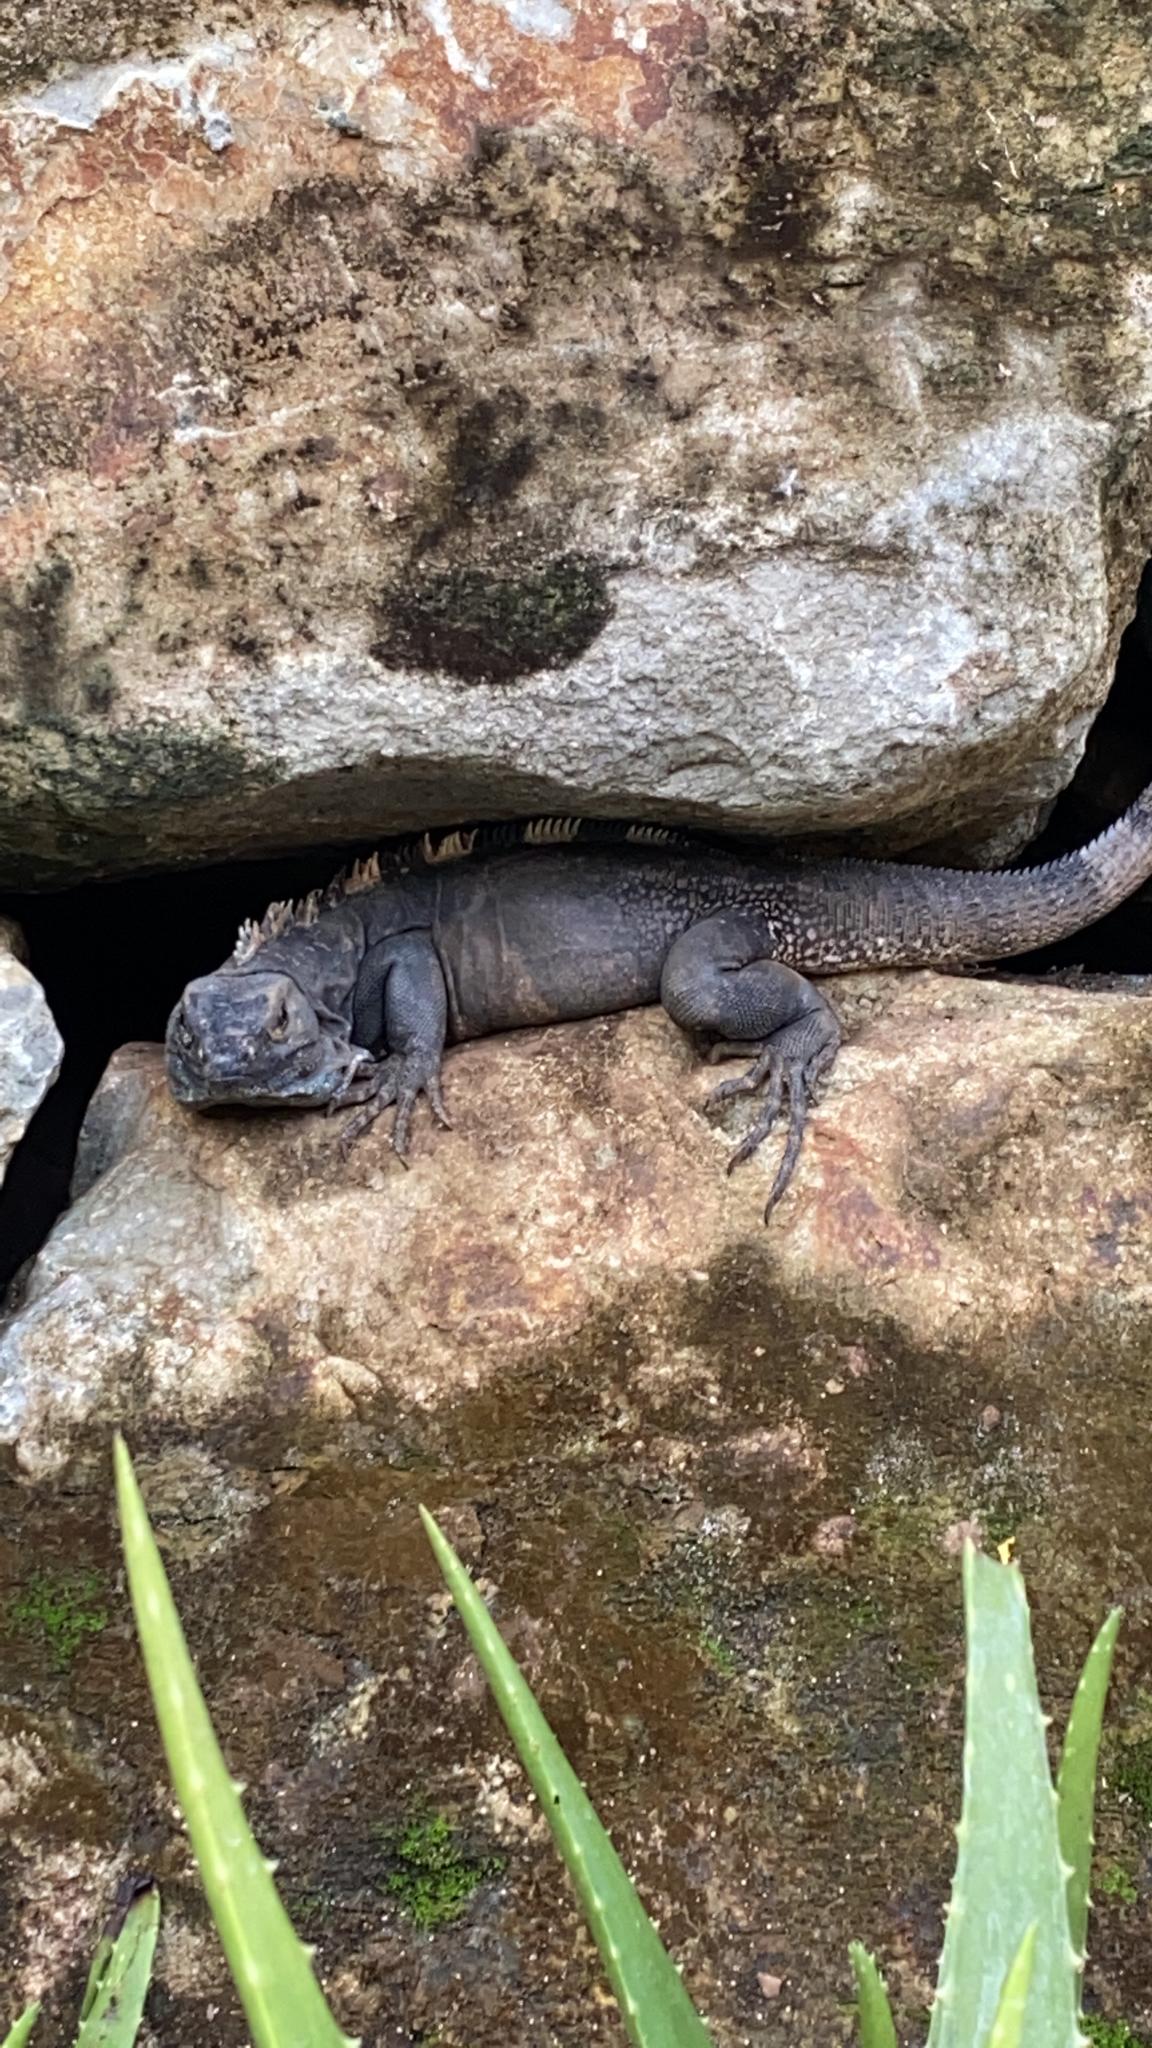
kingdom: Animalia
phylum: Chordata
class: Squamata
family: Iguanidae
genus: Ctenosaura
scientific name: Ctenosaura similis
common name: Black spiny-tailed iguana
